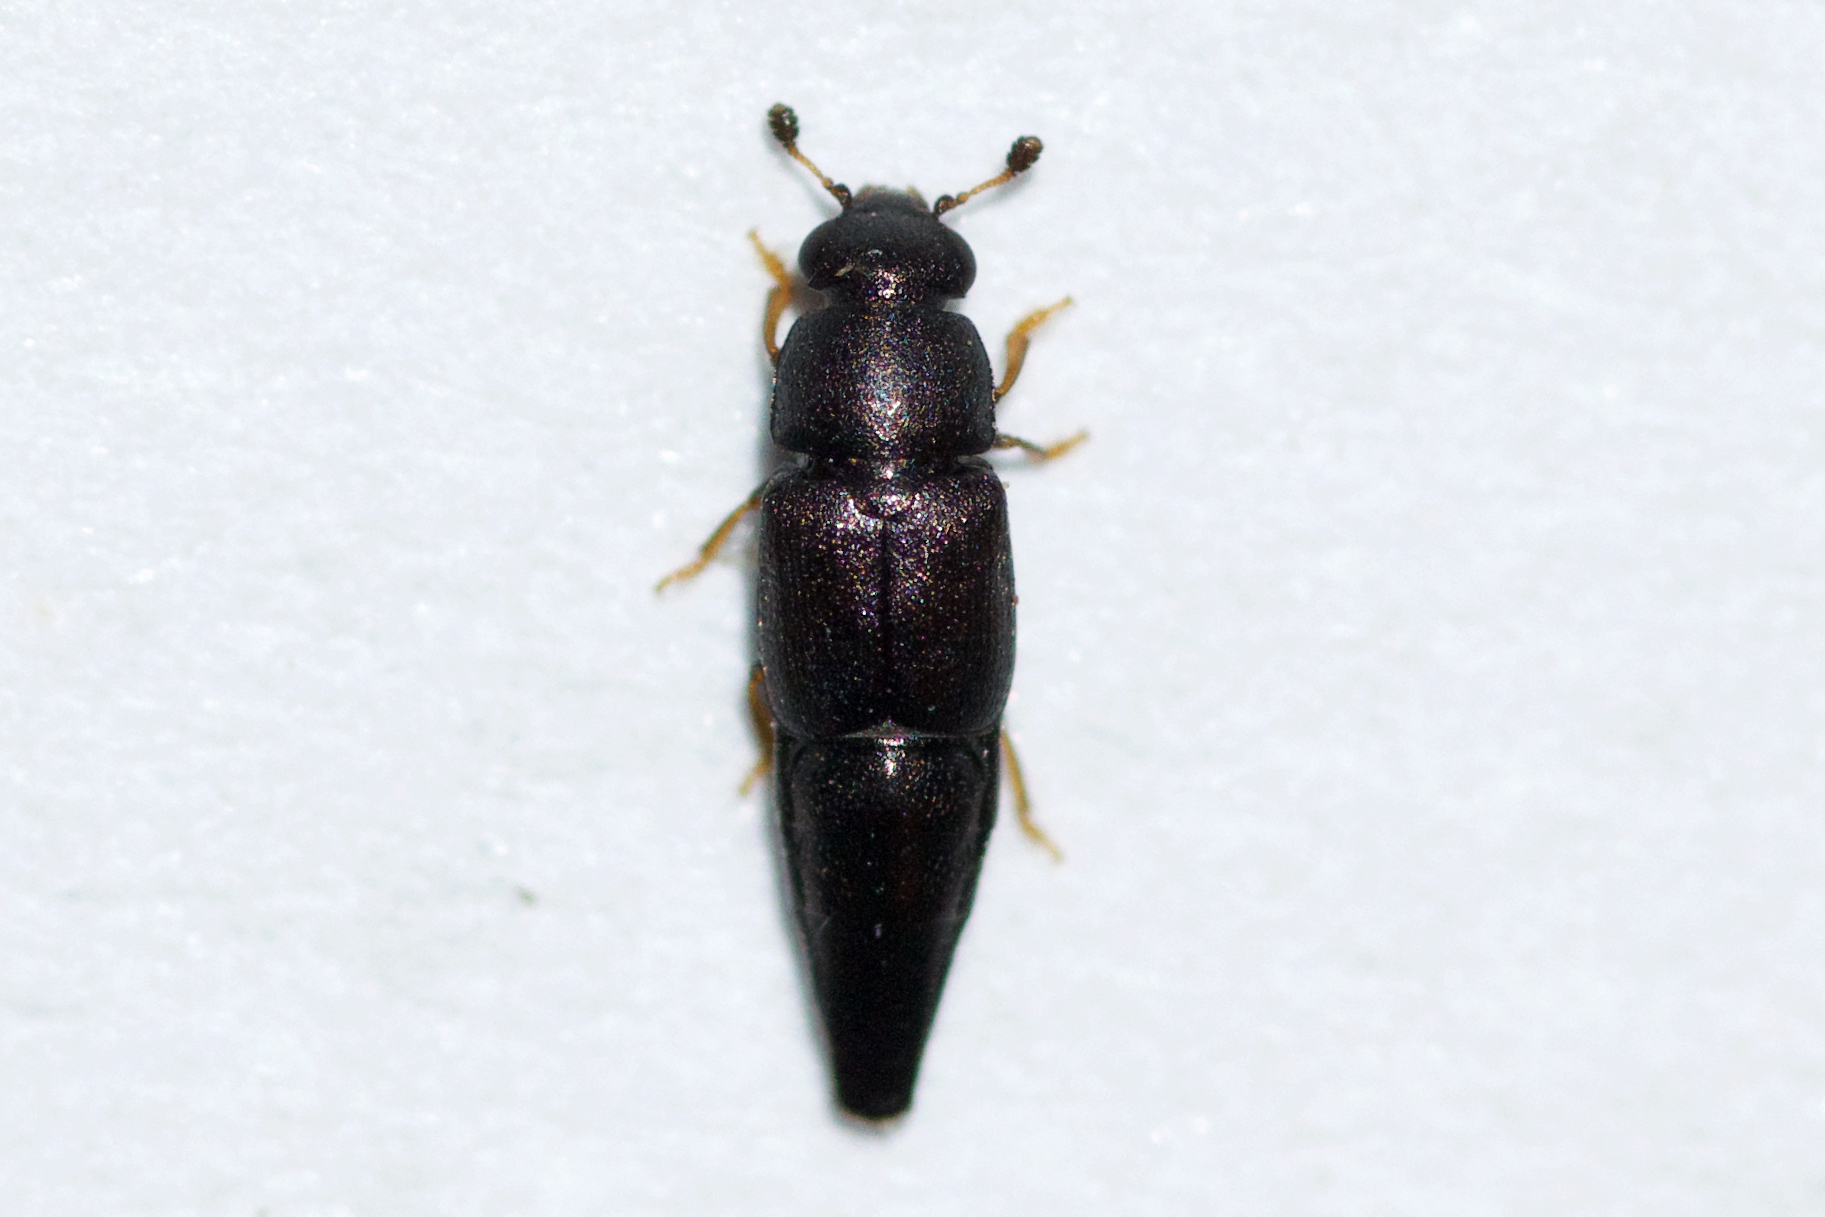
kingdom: Animalia
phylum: Arthropoda
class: Insecta
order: Coleoptera
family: Nitidulidae
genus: Conotelus
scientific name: Conotelus obscurus
